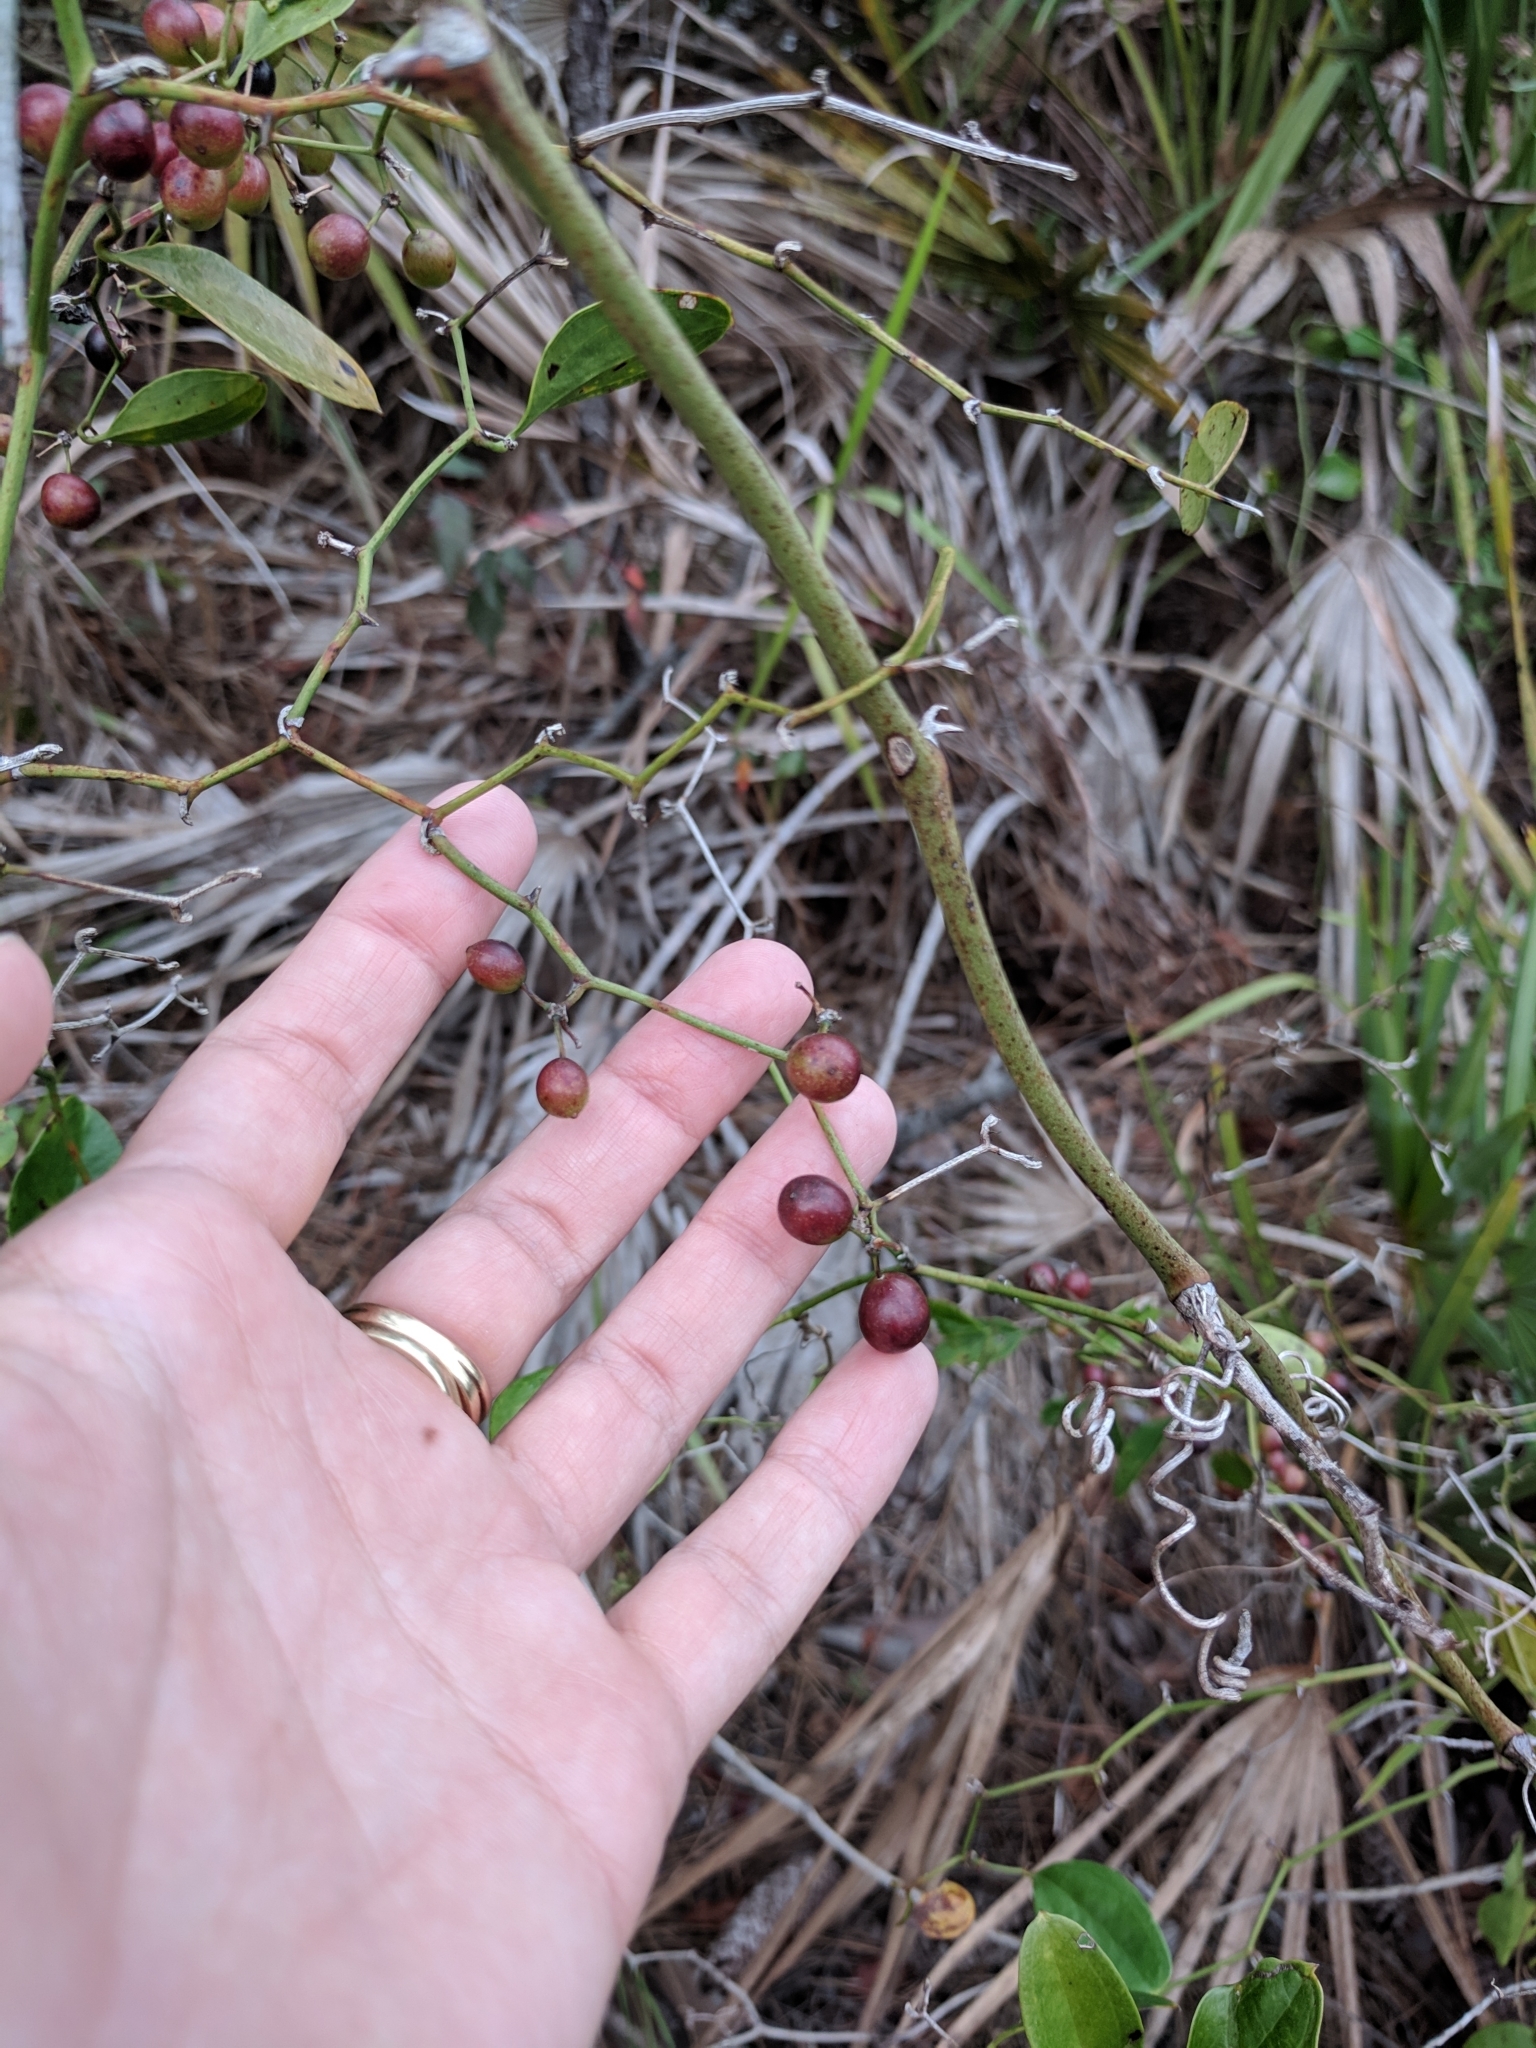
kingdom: Plantae
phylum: Tracheophyta
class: Liliopsida
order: Liliales
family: Smilacaceae
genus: Smilax
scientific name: Smilax auriculata
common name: Wild bamboo
